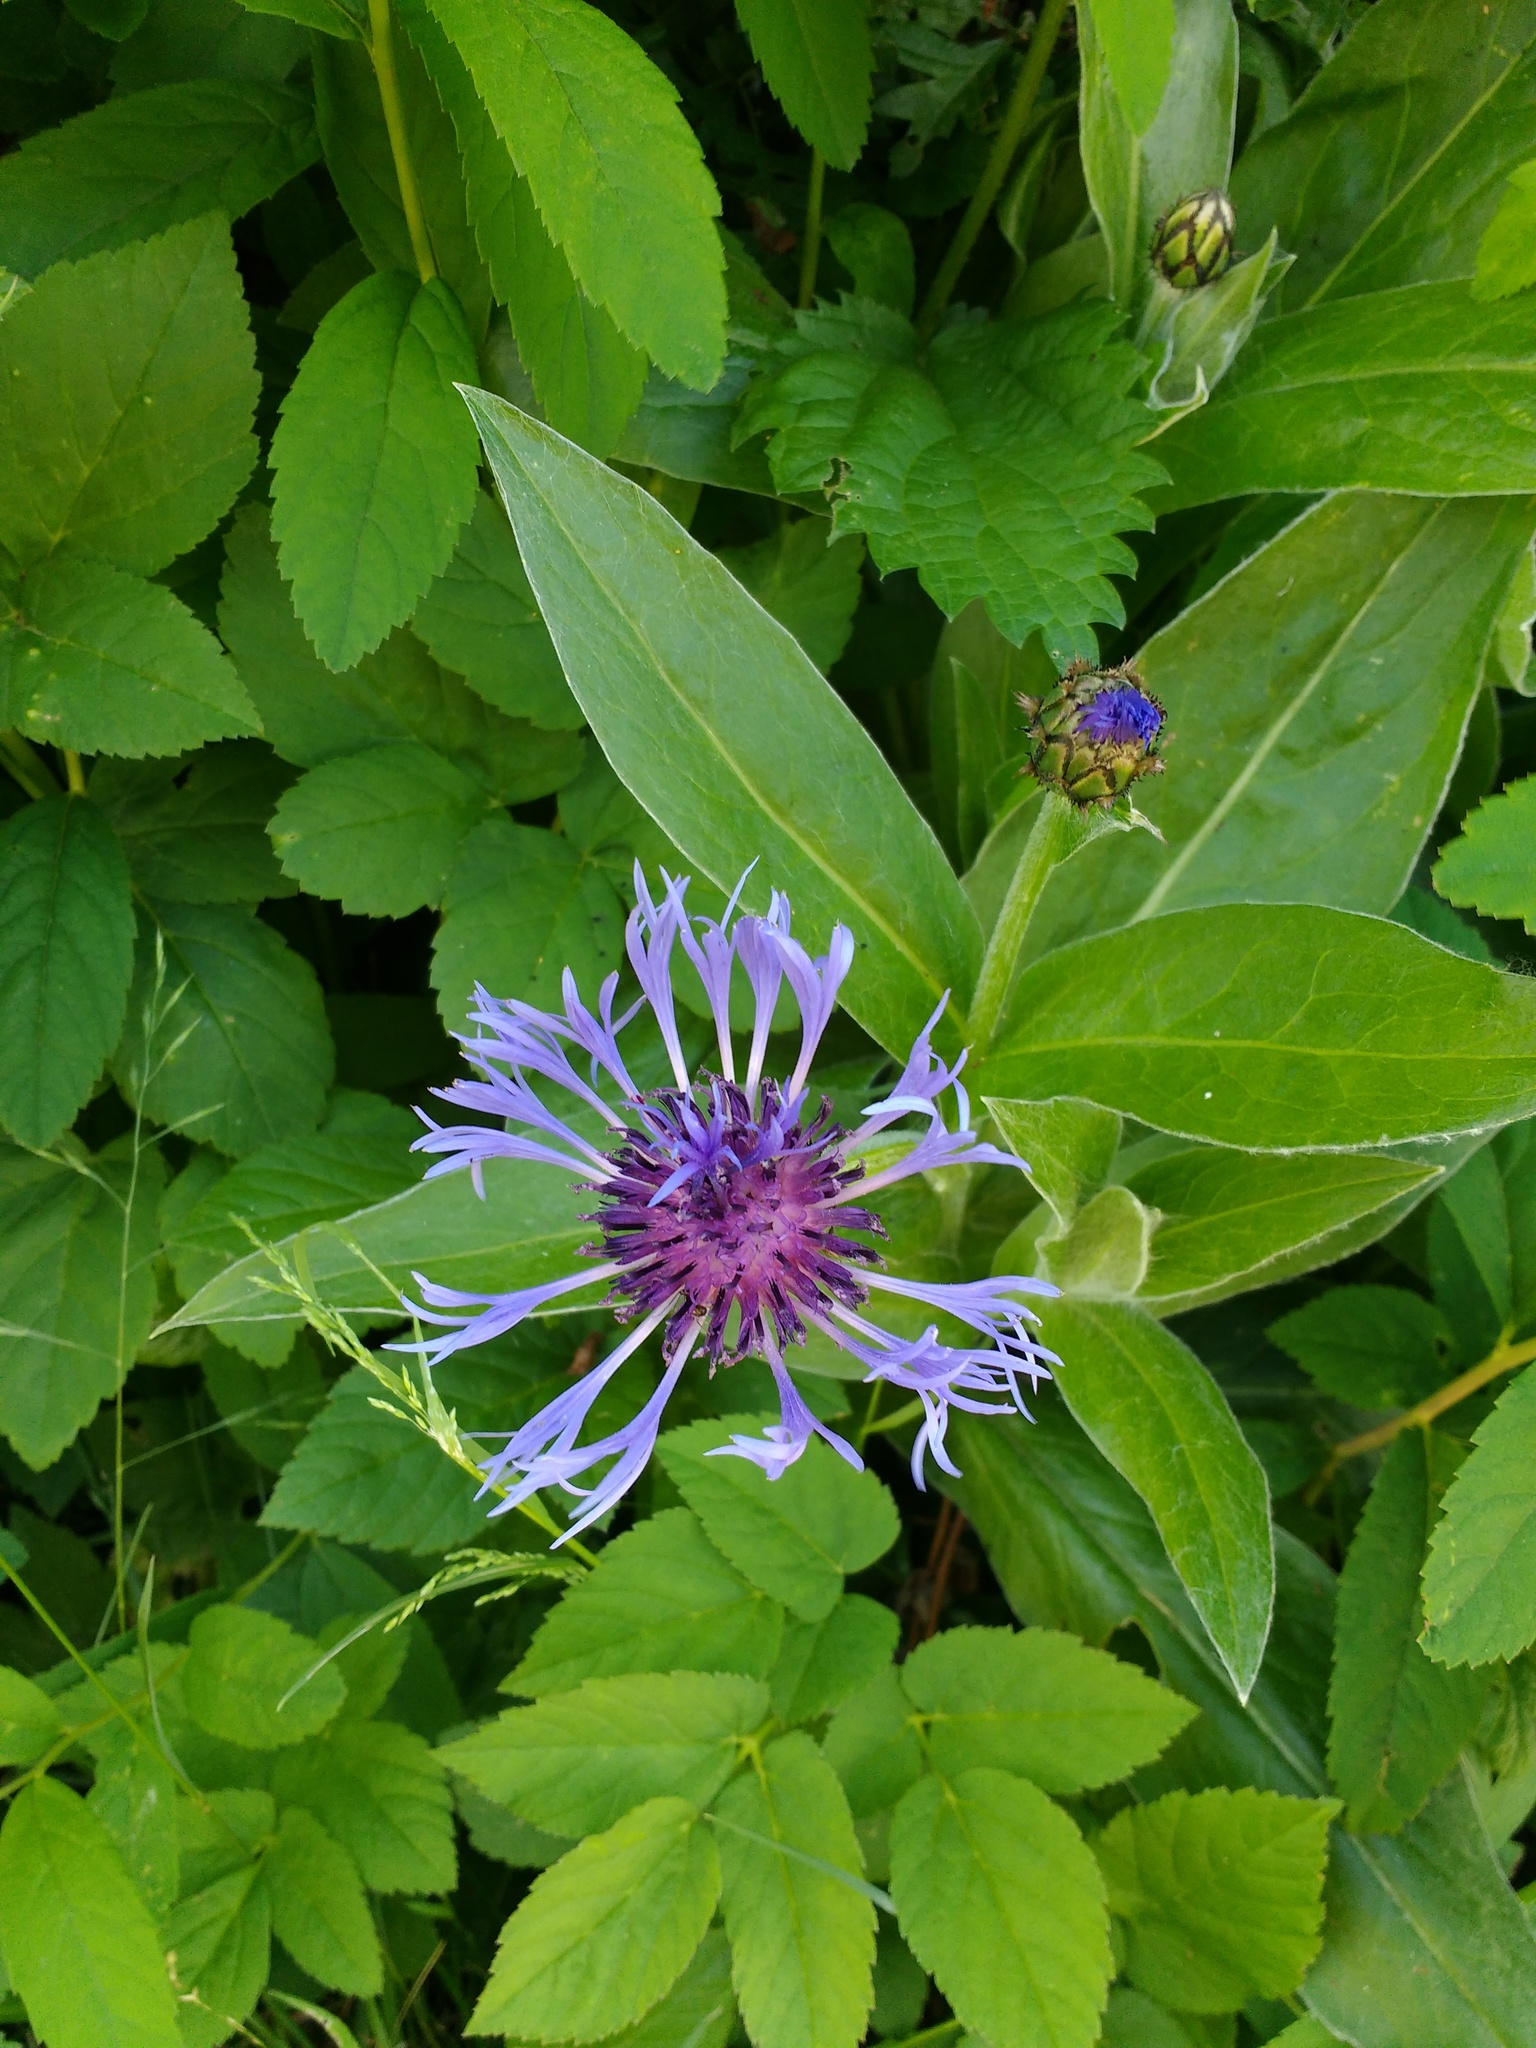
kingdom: Plantae
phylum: Tracheophyta
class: Magnoliopsida
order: Asterales
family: Asteraceae
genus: Centaurea
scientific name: Centaurea montana
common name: Perennial cornflower
